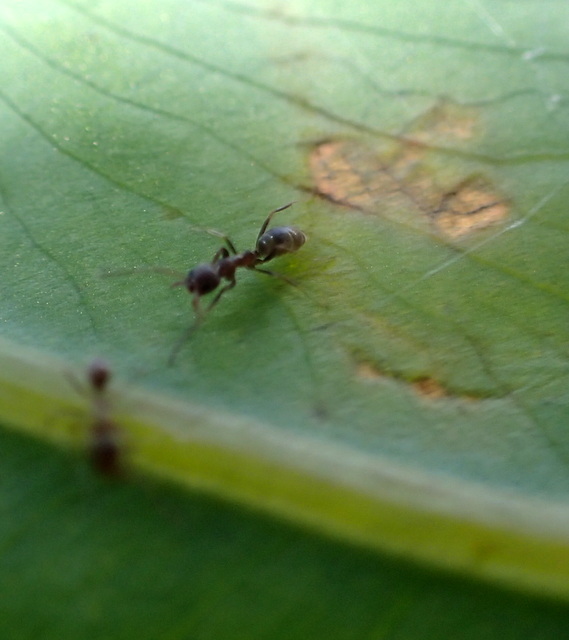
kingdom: Animalia
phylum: Arthropoda
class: Insecta
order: Hymenoptera
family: Formicidae
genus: Linepithema
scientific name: Linepithema humile
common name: Argentine ant
